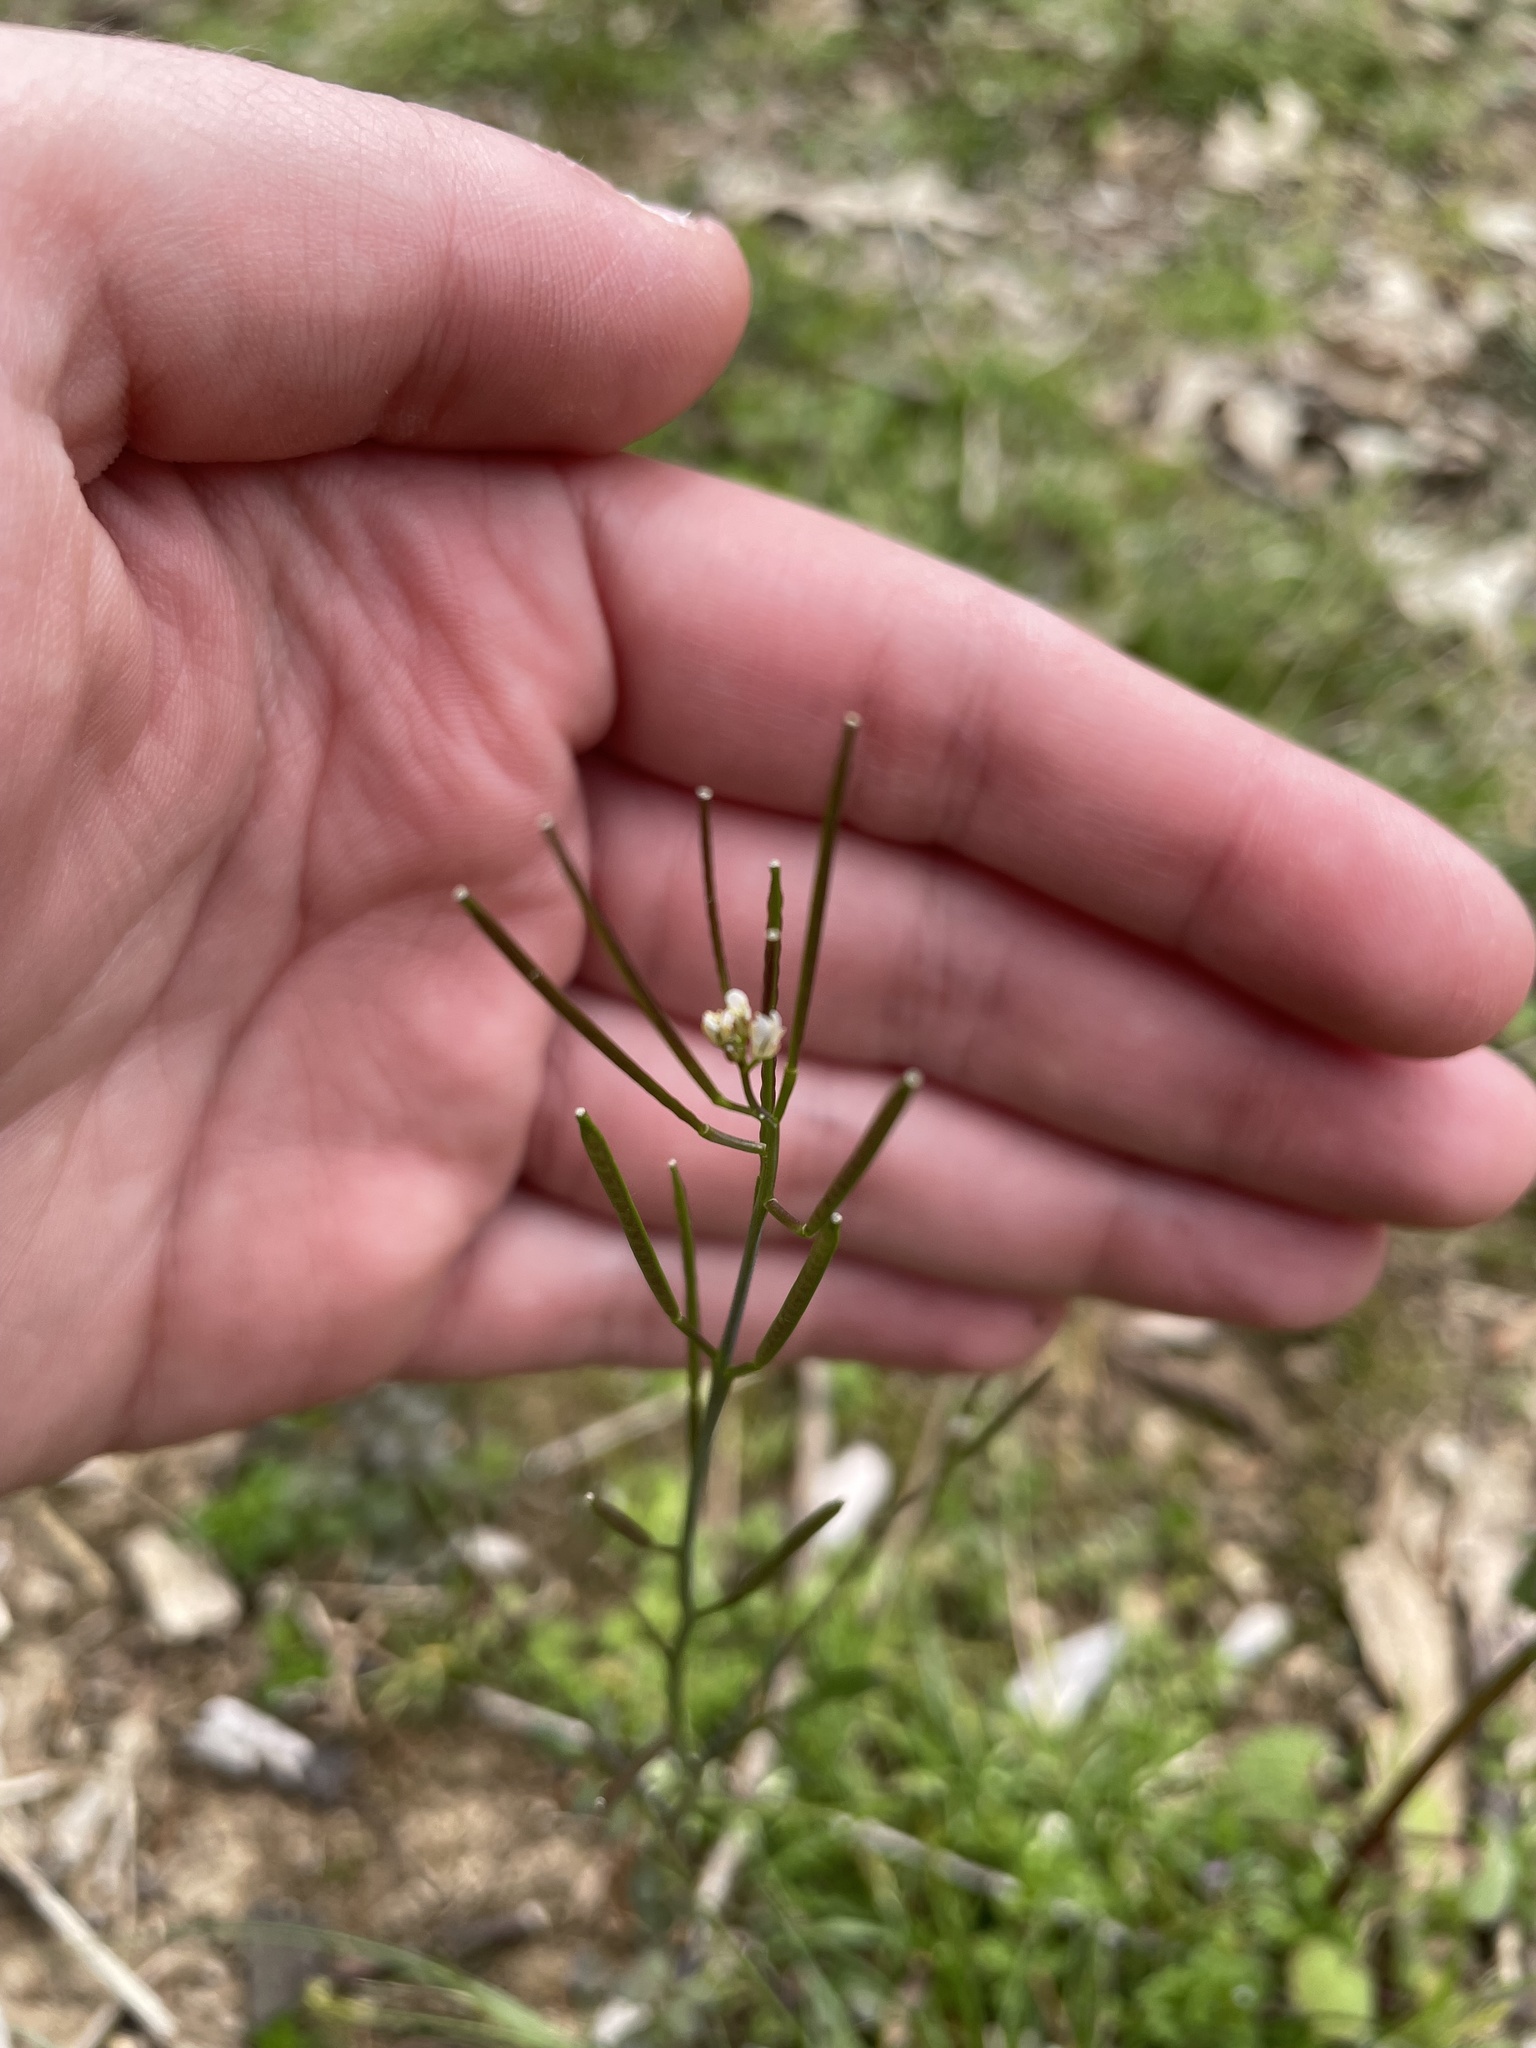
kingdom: Plantae
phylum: Tracheophyta
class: Magnoliopsida
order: Brassicales
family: Brassicaceae
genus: Cardamine
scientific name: Cardamine hirsuta
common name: Hairy bittercress
